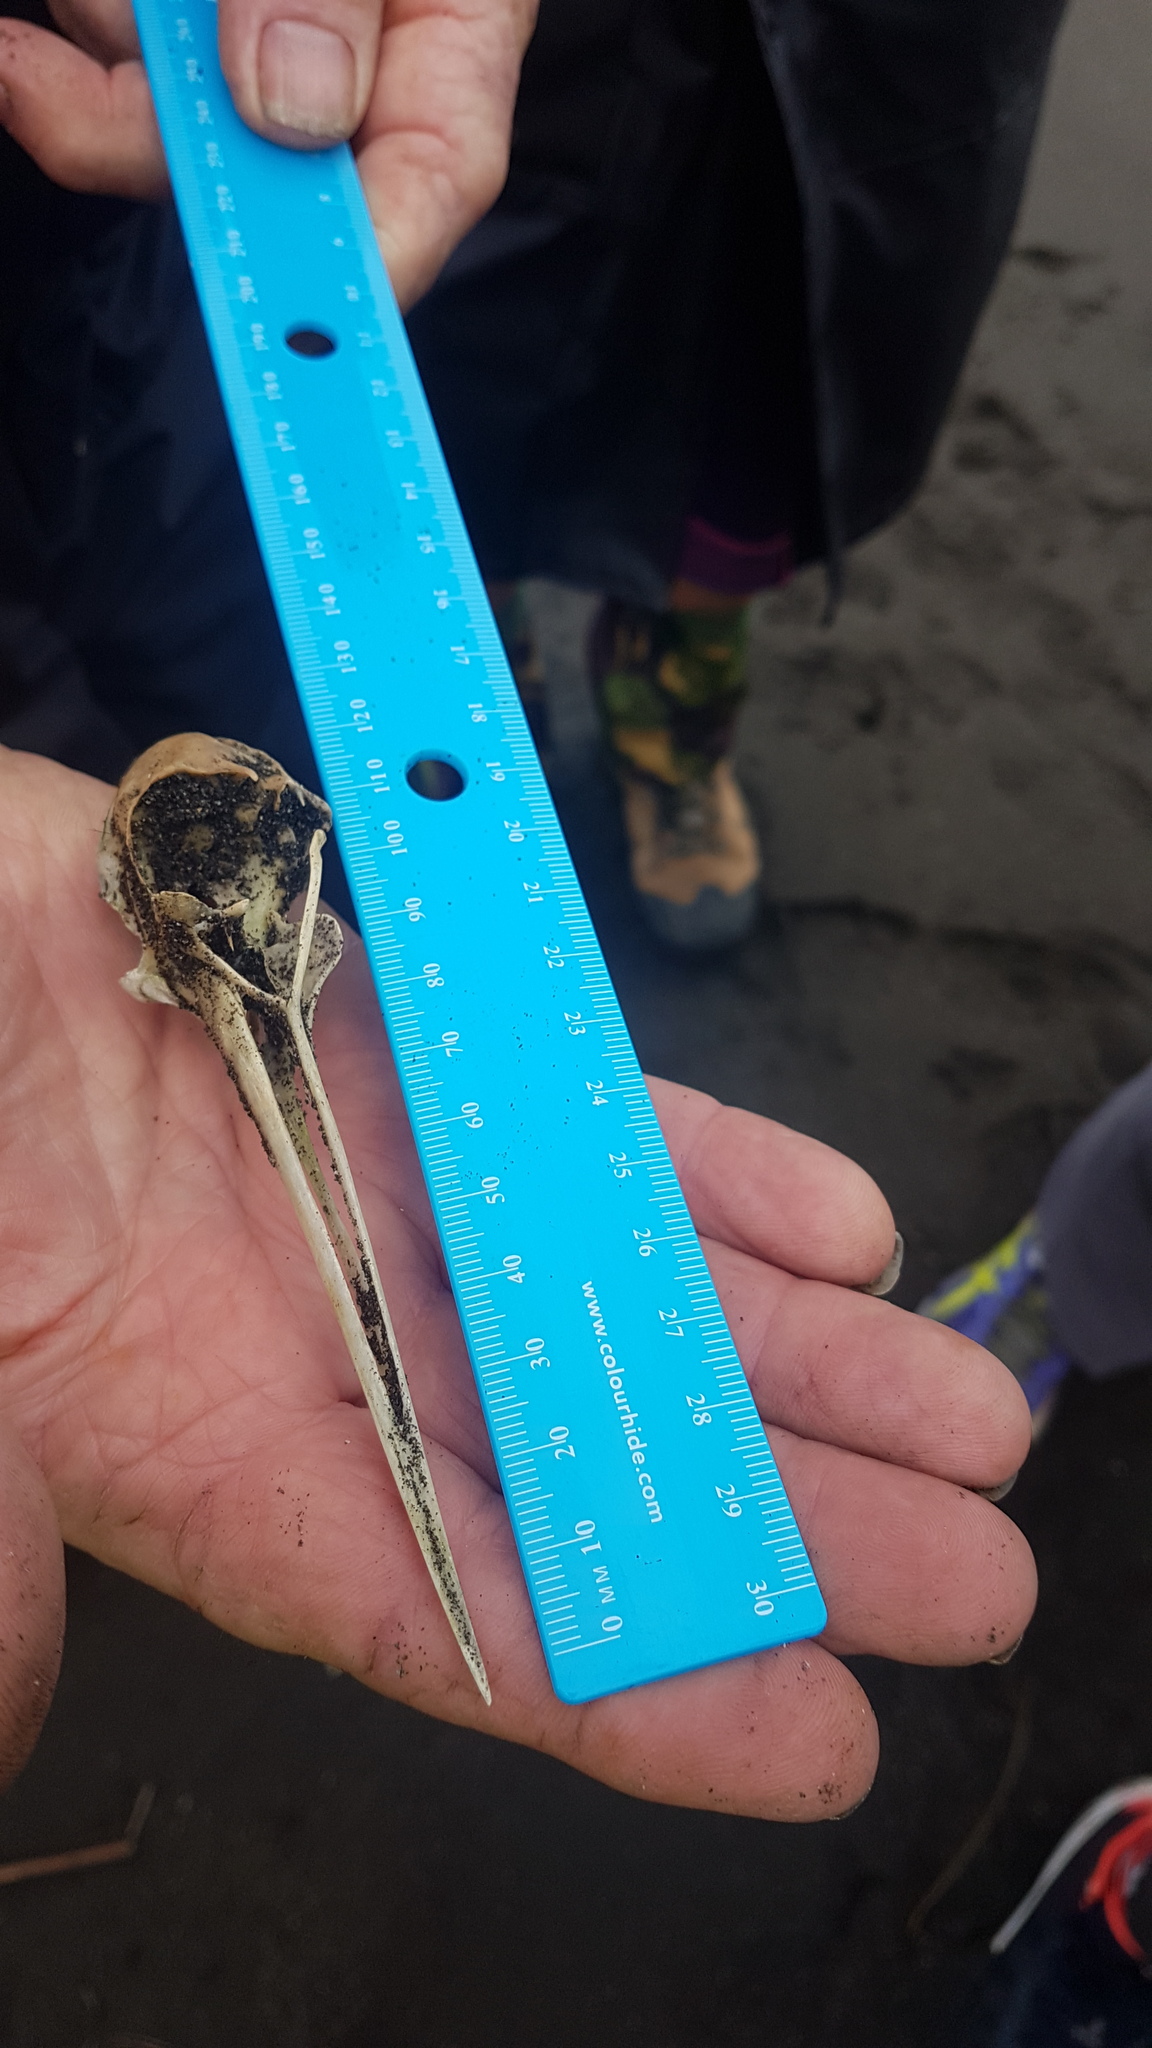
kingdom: Animalia
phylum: Chordata
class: Aves
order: Charadriiformes
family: Recurvirostridae
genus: Himantopus
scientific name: Himantopus leucocephalus
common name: White-headed stilt
